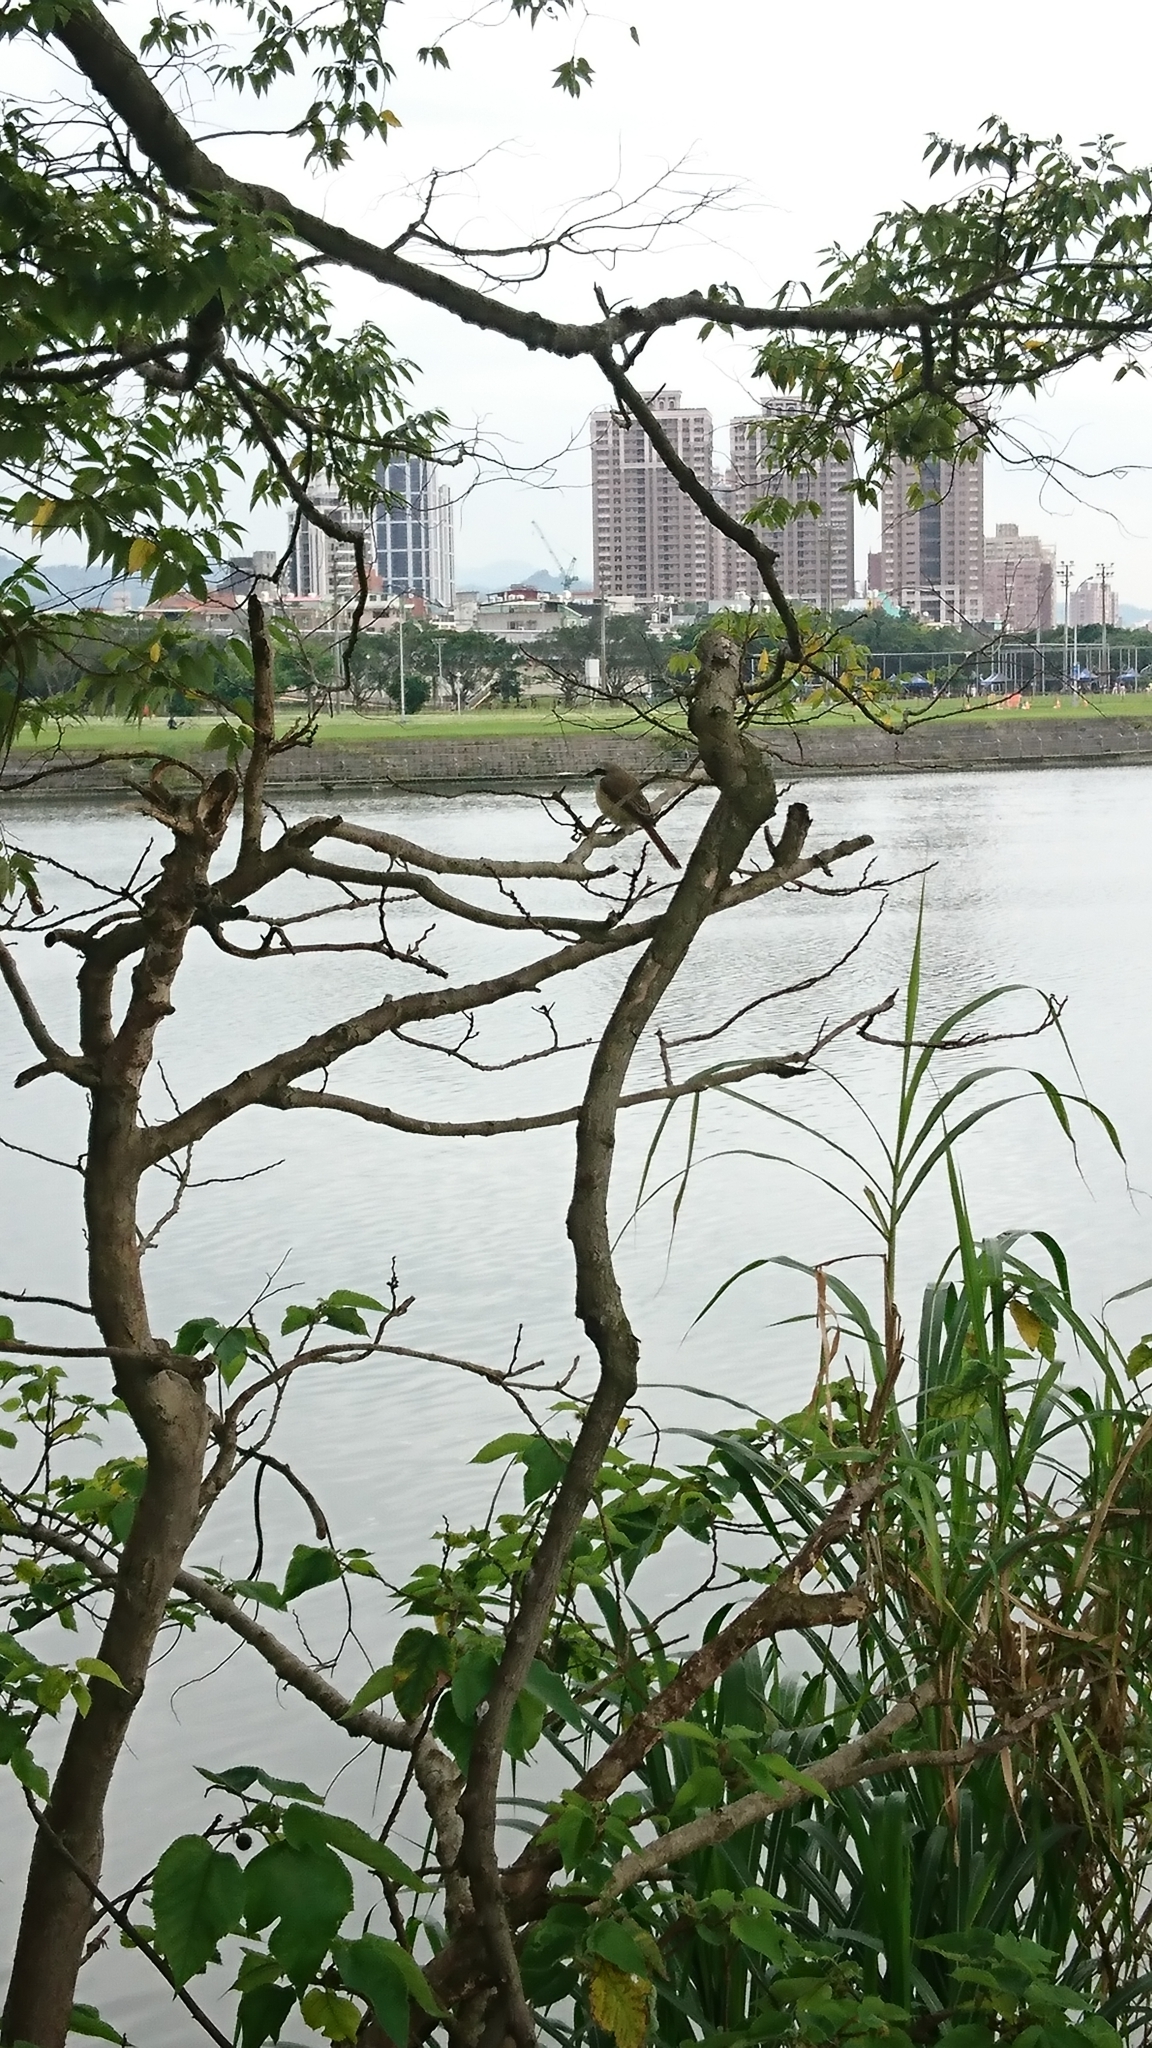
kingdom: Animalia
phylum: Chordata
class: Aves
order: Passeriformes
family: Laniidae
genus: Lanius
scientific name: Lanius cristatus
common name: Brown shrike
